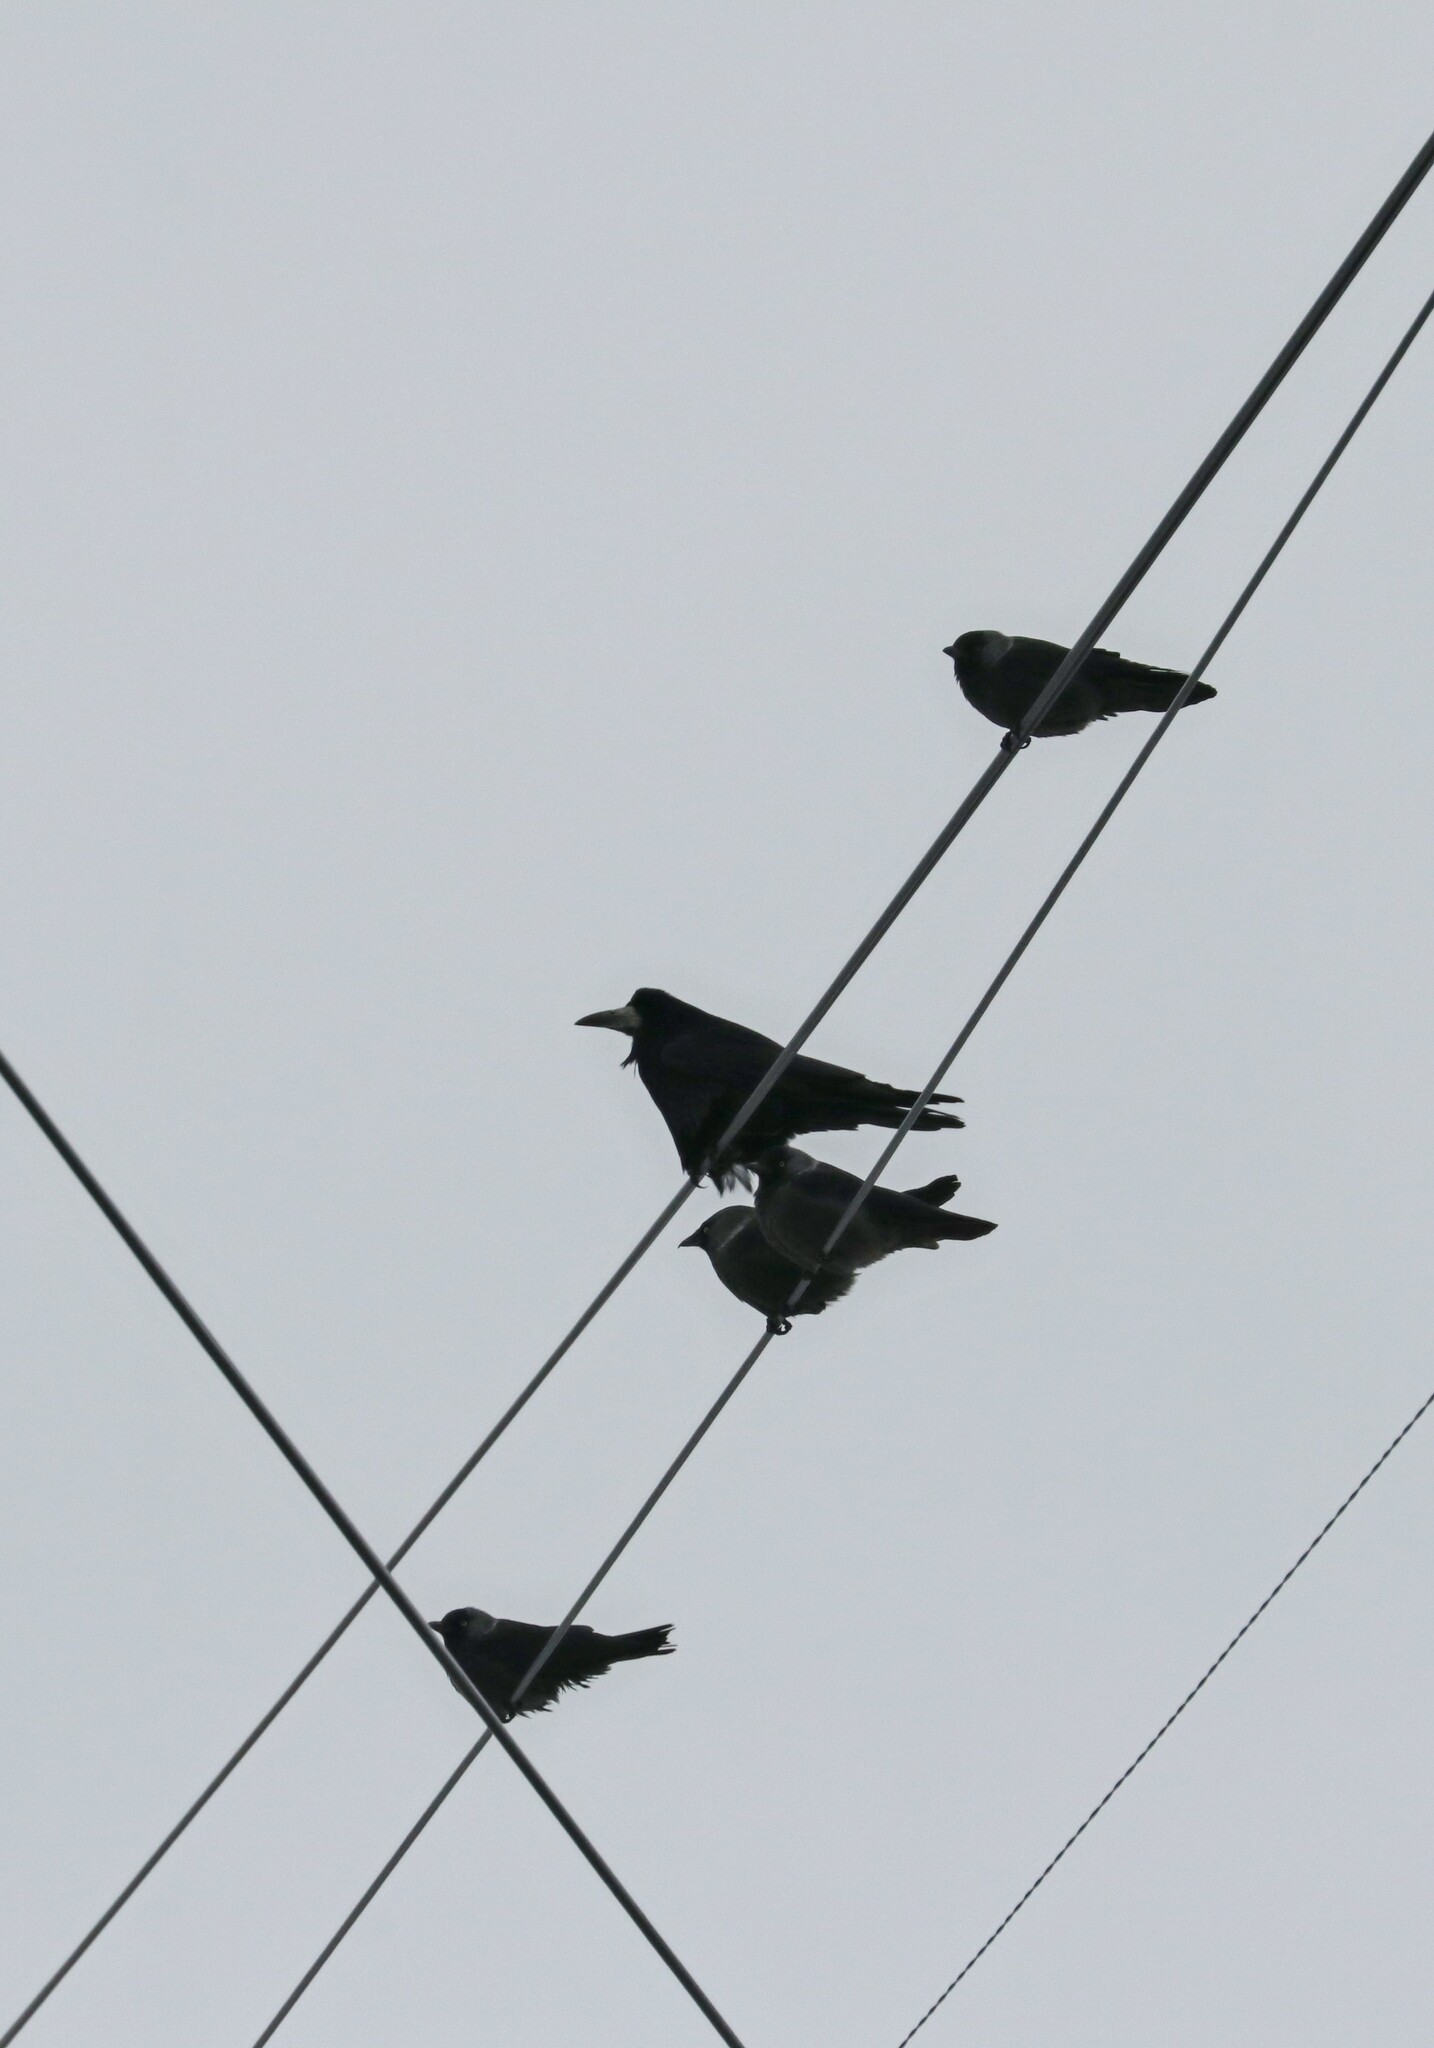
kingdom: Animalia
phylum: Chordata
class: Aves
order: Passeriformes
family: Corvidae
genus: Corvus
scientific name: Corvus frugilegus
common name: Rook
